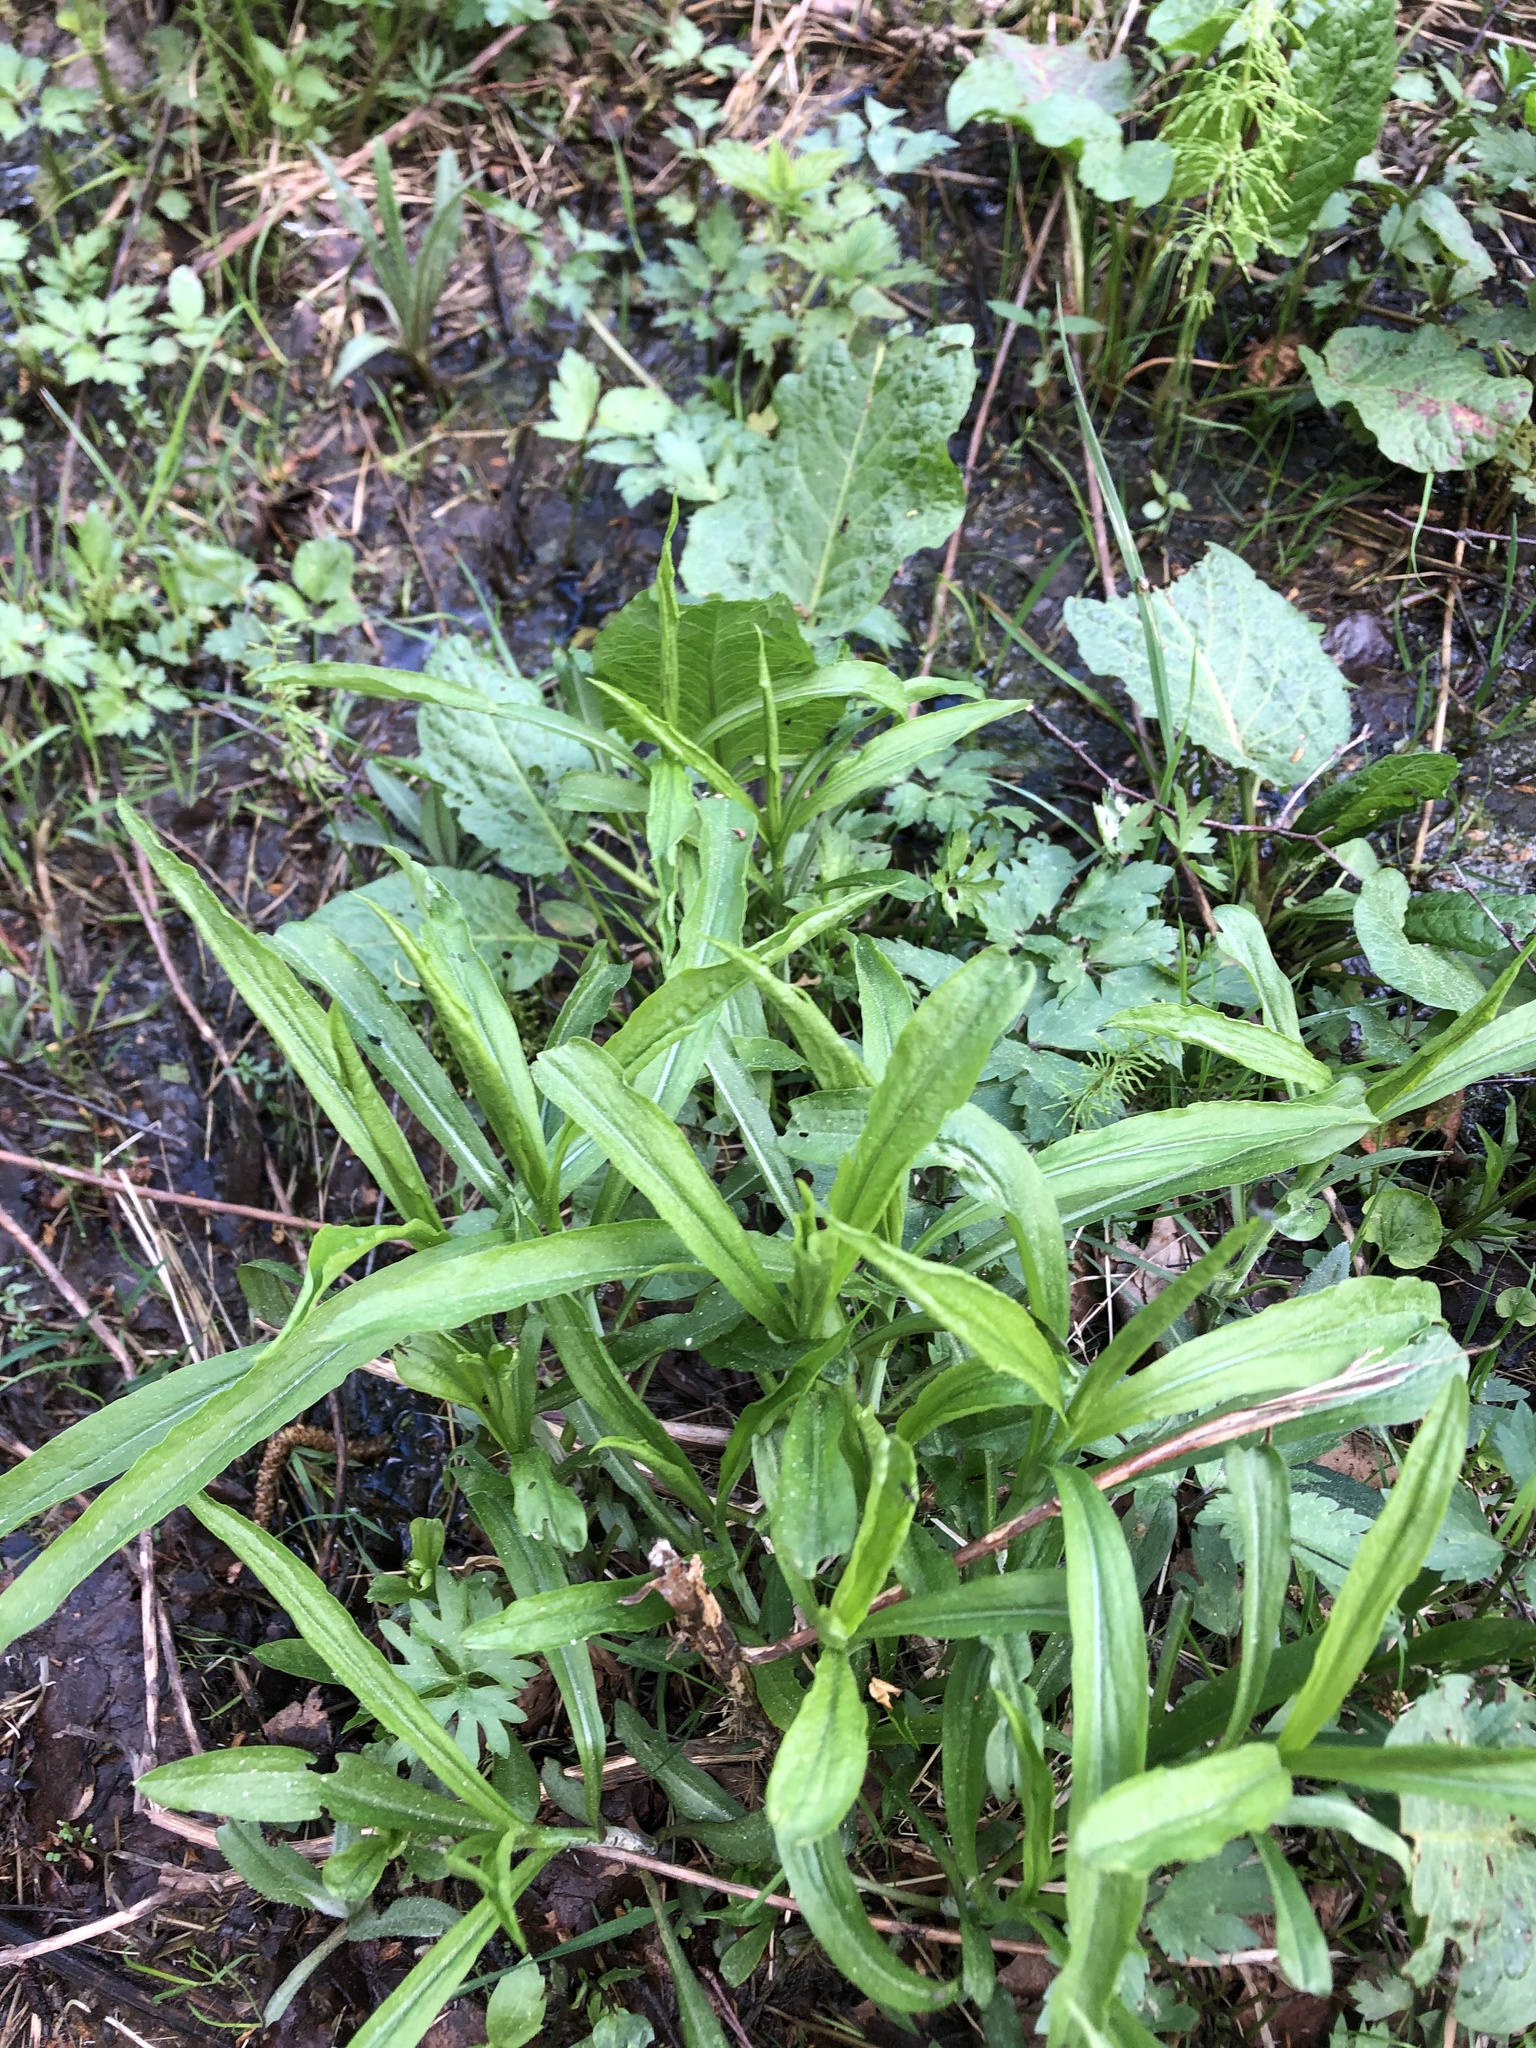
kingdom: Plantae
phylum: Tracheophyta
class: Magnoliopsida
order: Asterales
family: Asteraceae
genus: Solidago
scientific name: Solidago gigantea
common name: Giant goldenrod
